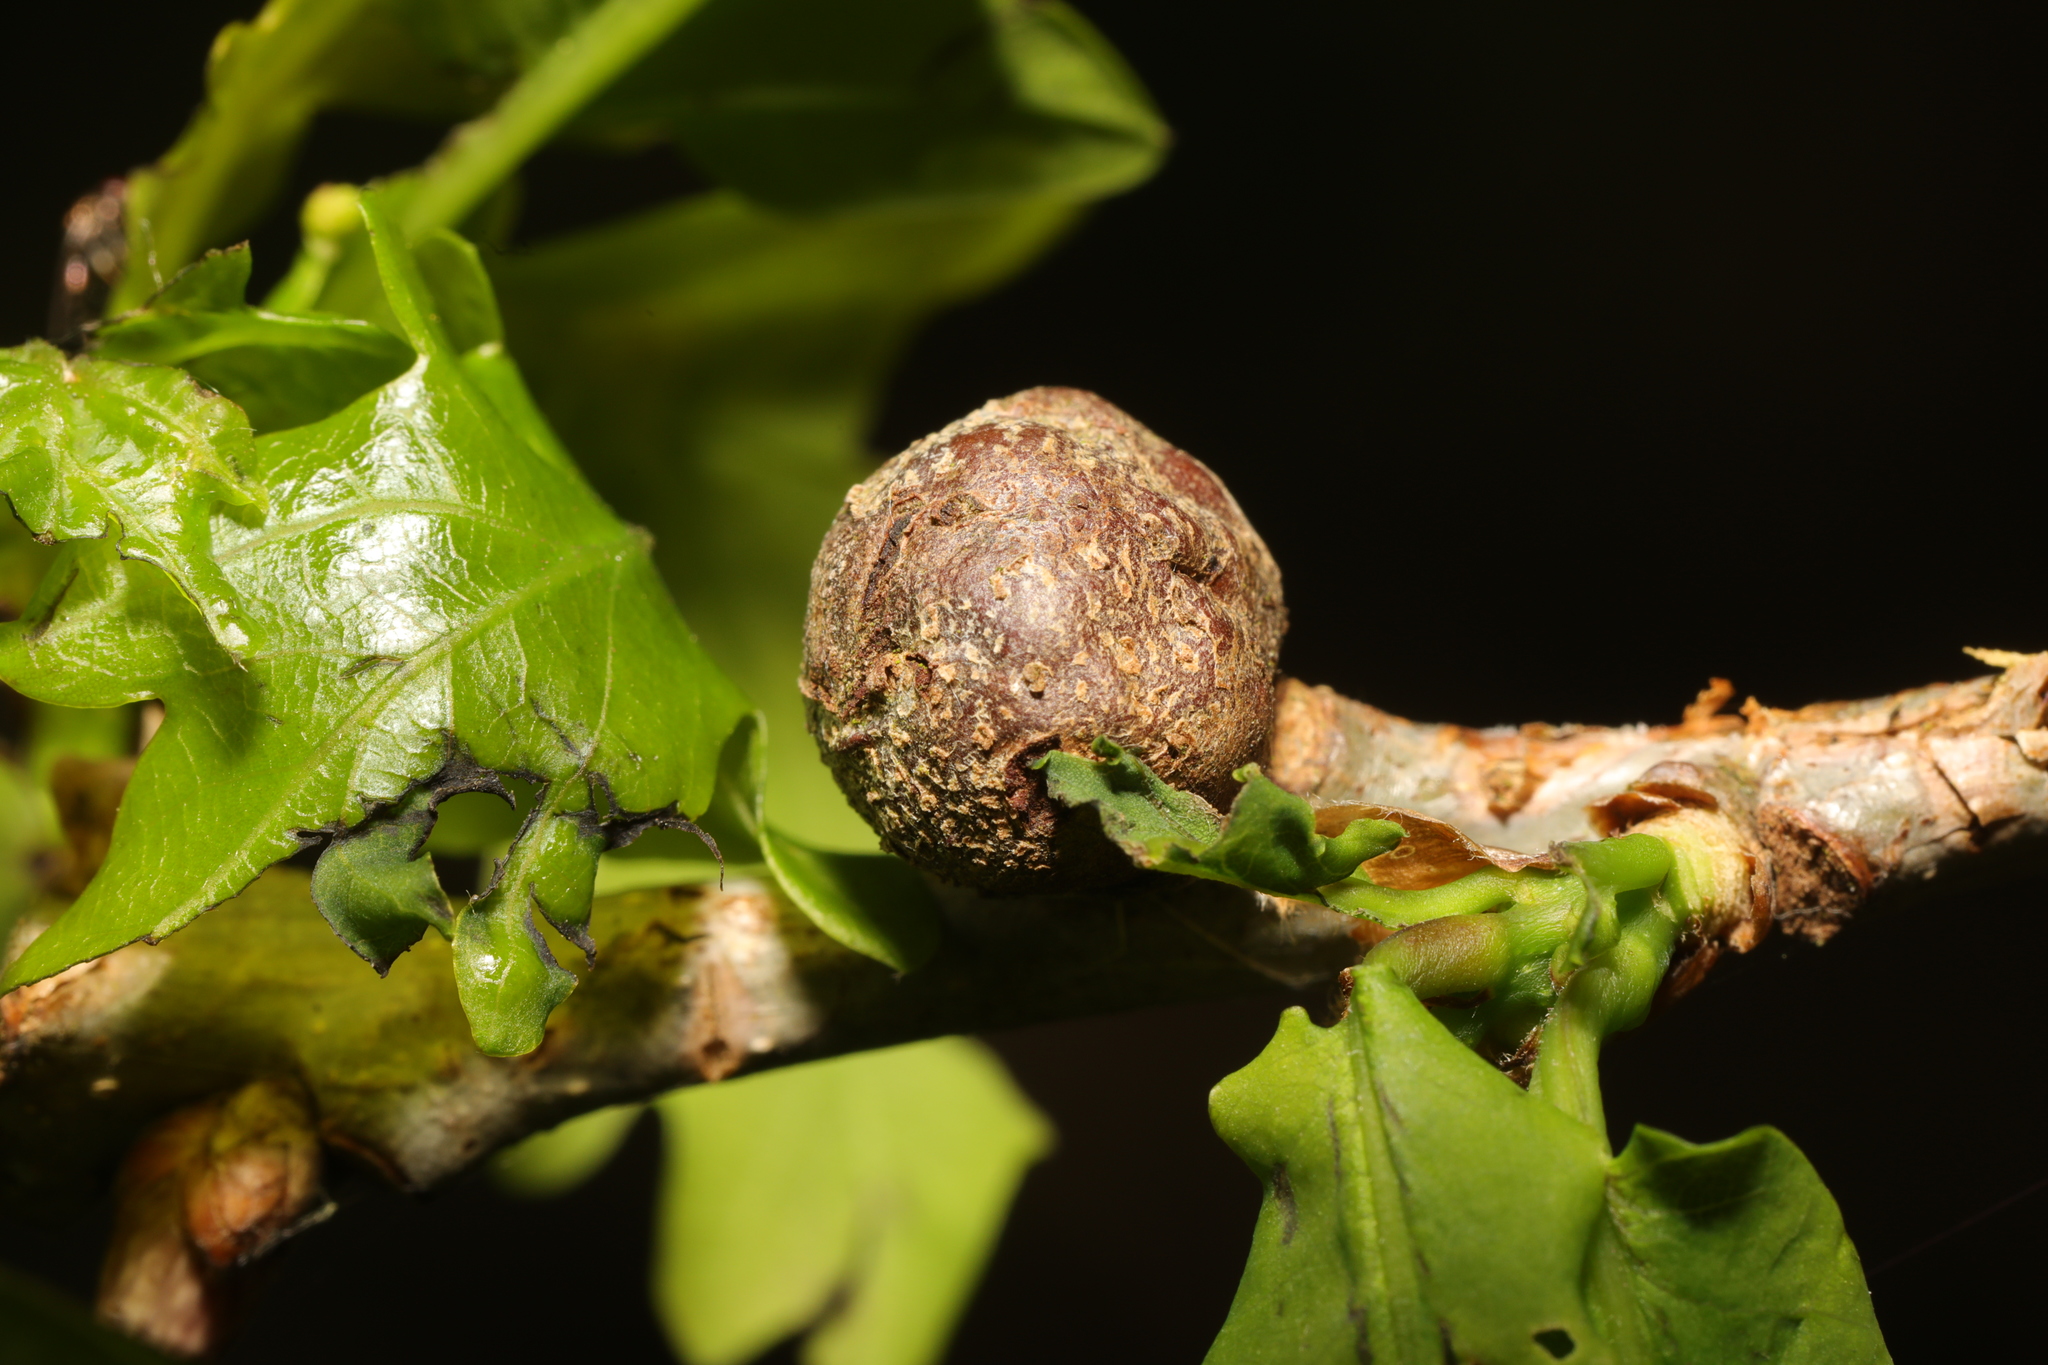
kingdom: Animalia
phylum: Arthropoda
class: Insecta
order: Hymenoptera
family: Cynipidae
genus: Andricus
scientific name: Andricus lignicolus
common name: Cola-nut gall
